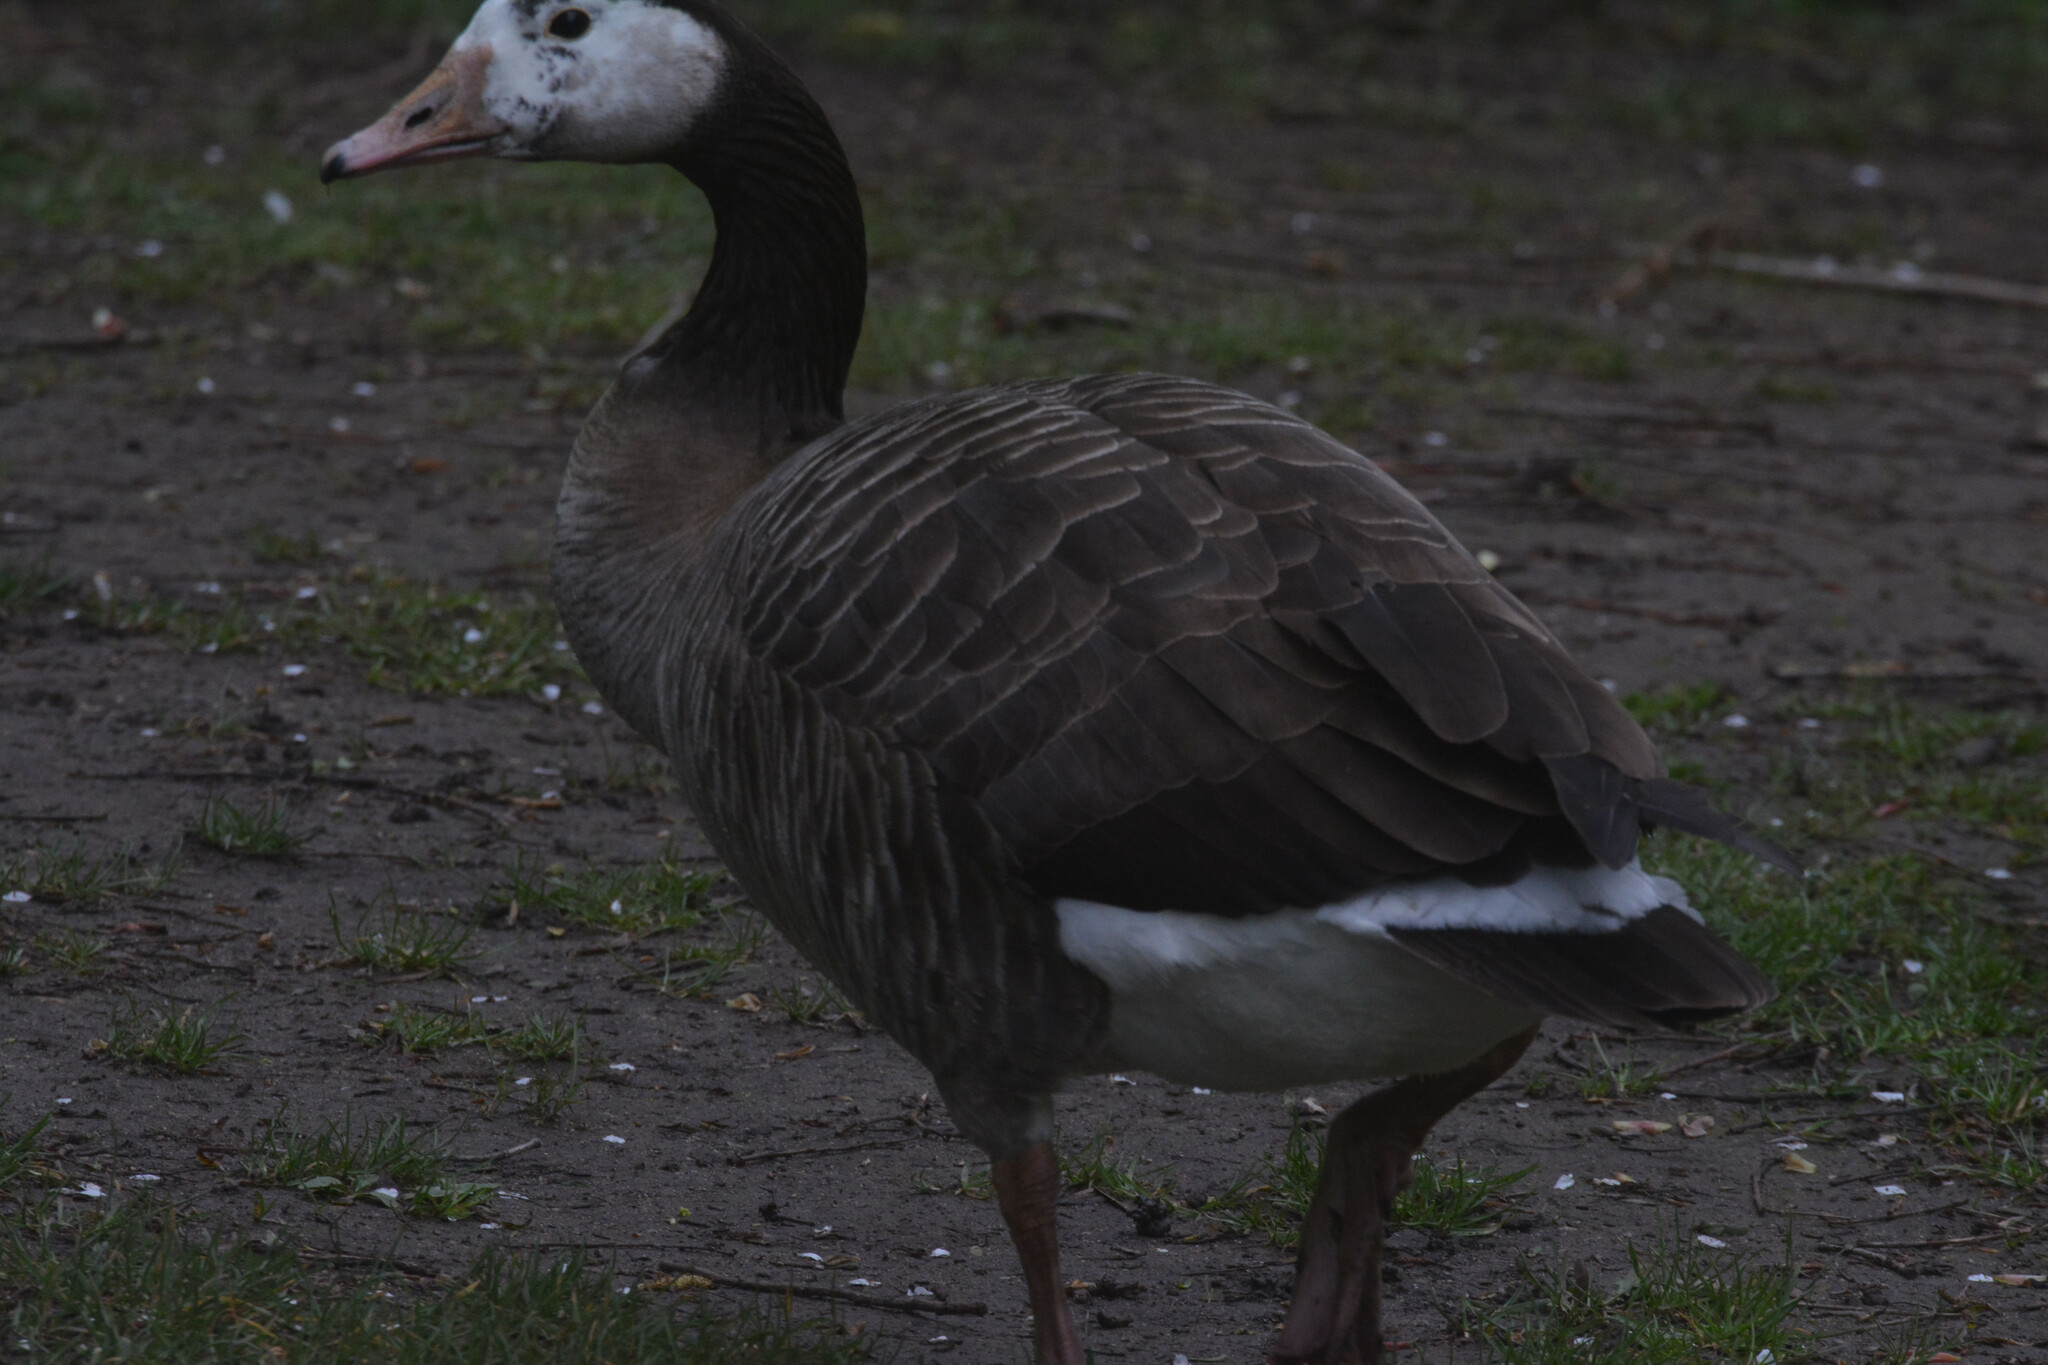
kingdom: Animalia
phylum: Chordata
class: Aves
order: Anseriformes
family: Anatidae
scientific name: Anatidae
